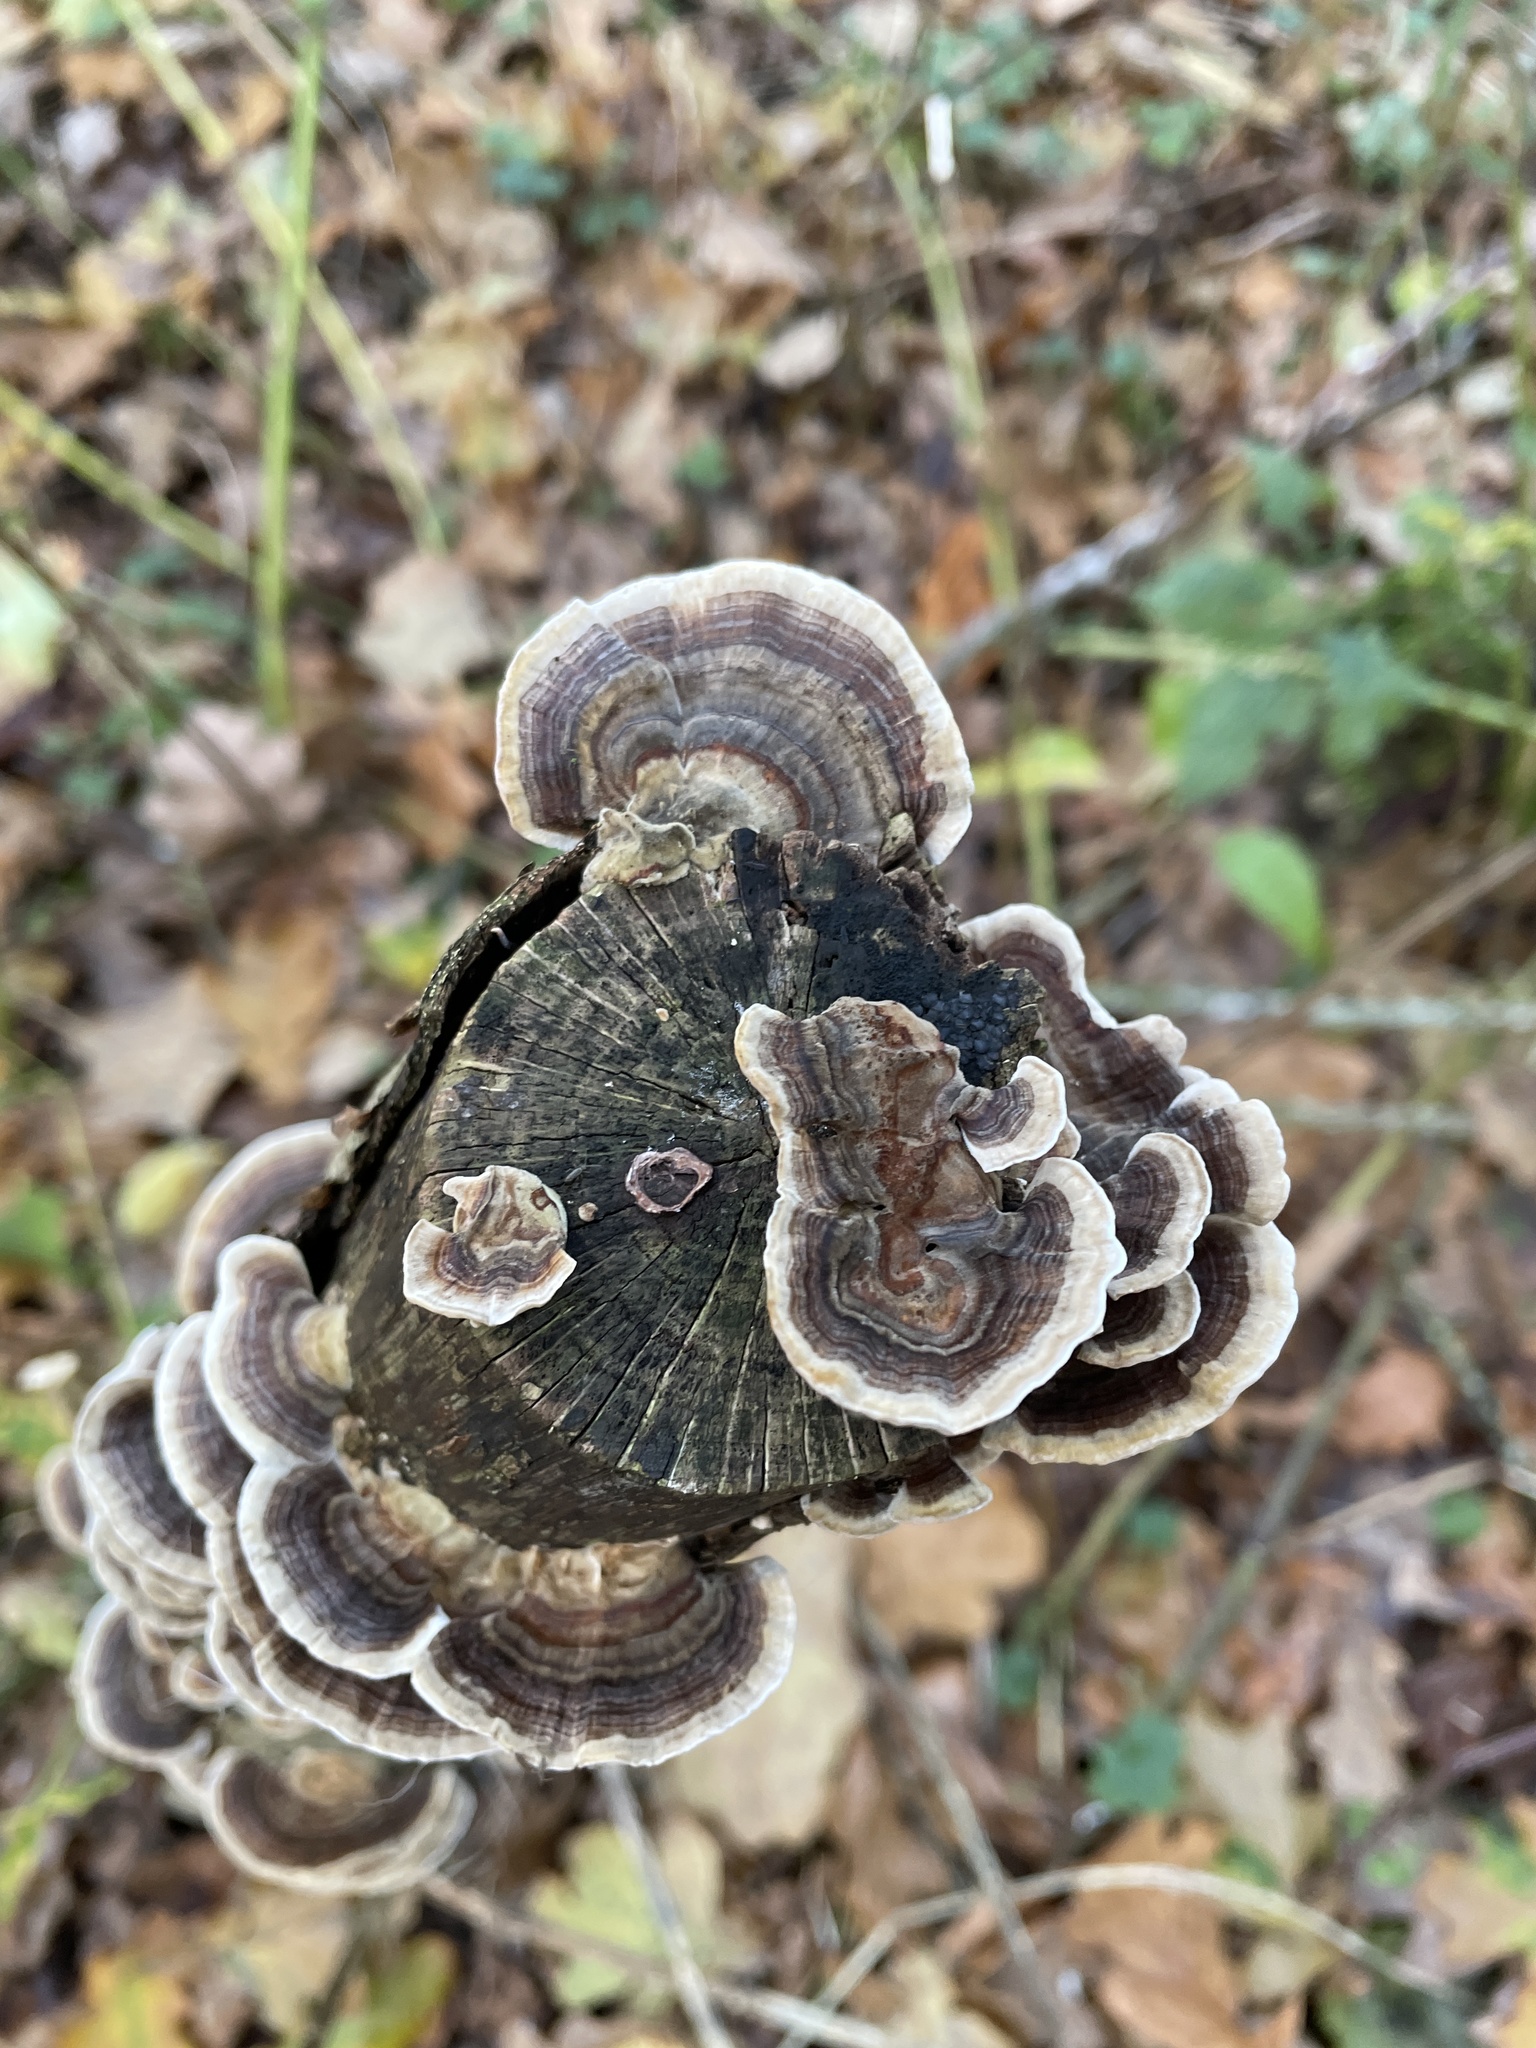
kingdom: Fungi
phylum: Basidiomycota
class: Agaricomycetes
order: Polyporales
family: Polyporaceae
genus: Trametes
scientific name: Trametes versicolor
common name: Turkeytail
